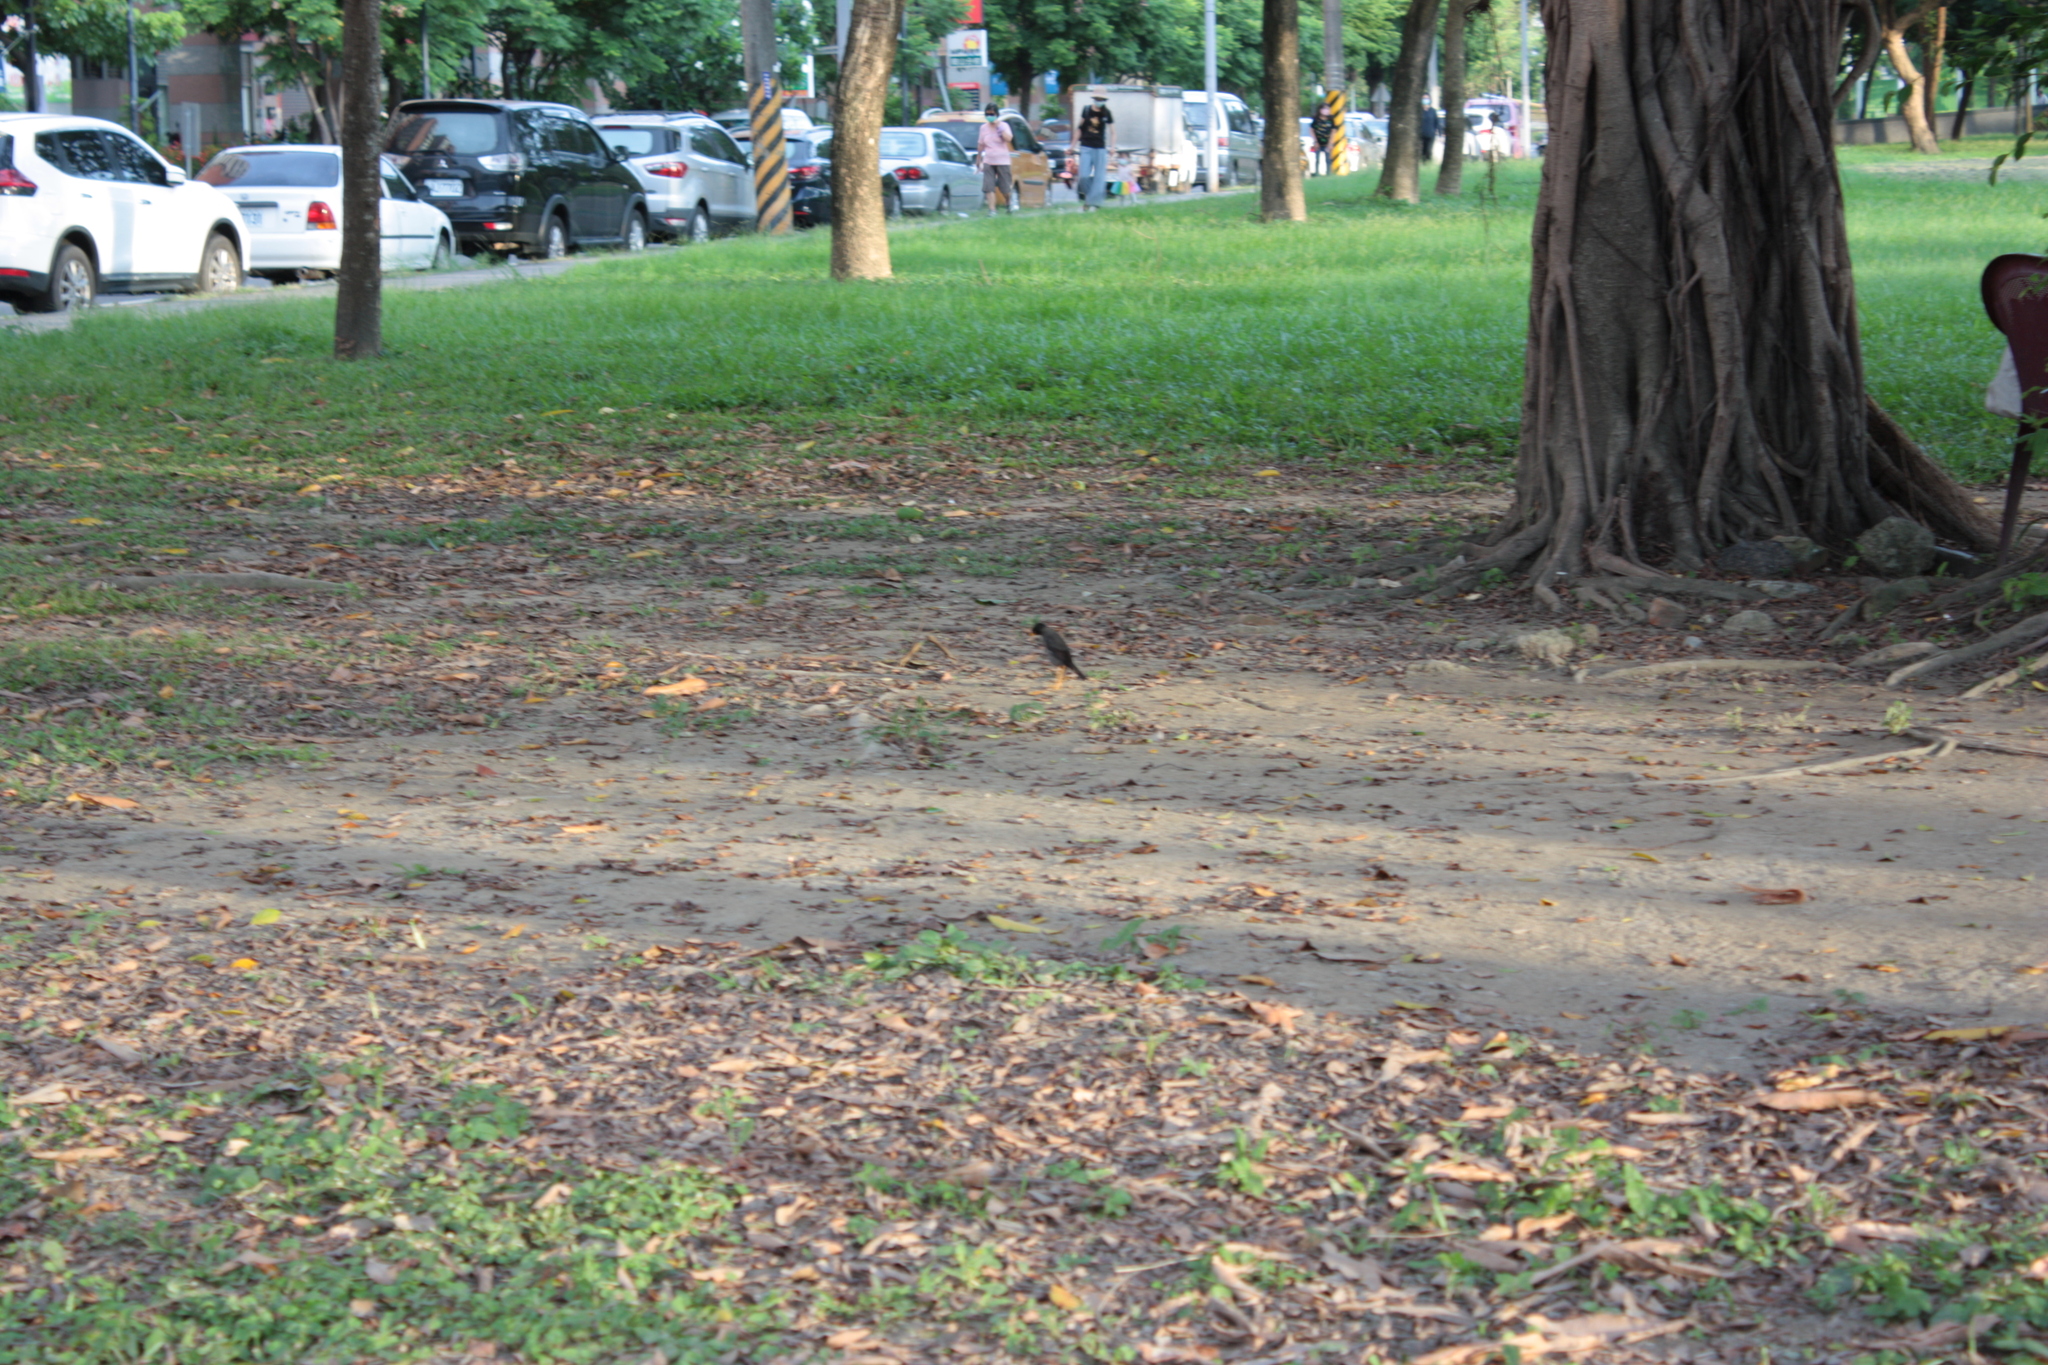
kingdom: Animalia
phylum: Chordata
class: Aves
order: Passeriformes
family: Sturnidae
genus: Acridotheres
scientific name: Acridotheres javanicus
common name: Javan myna
